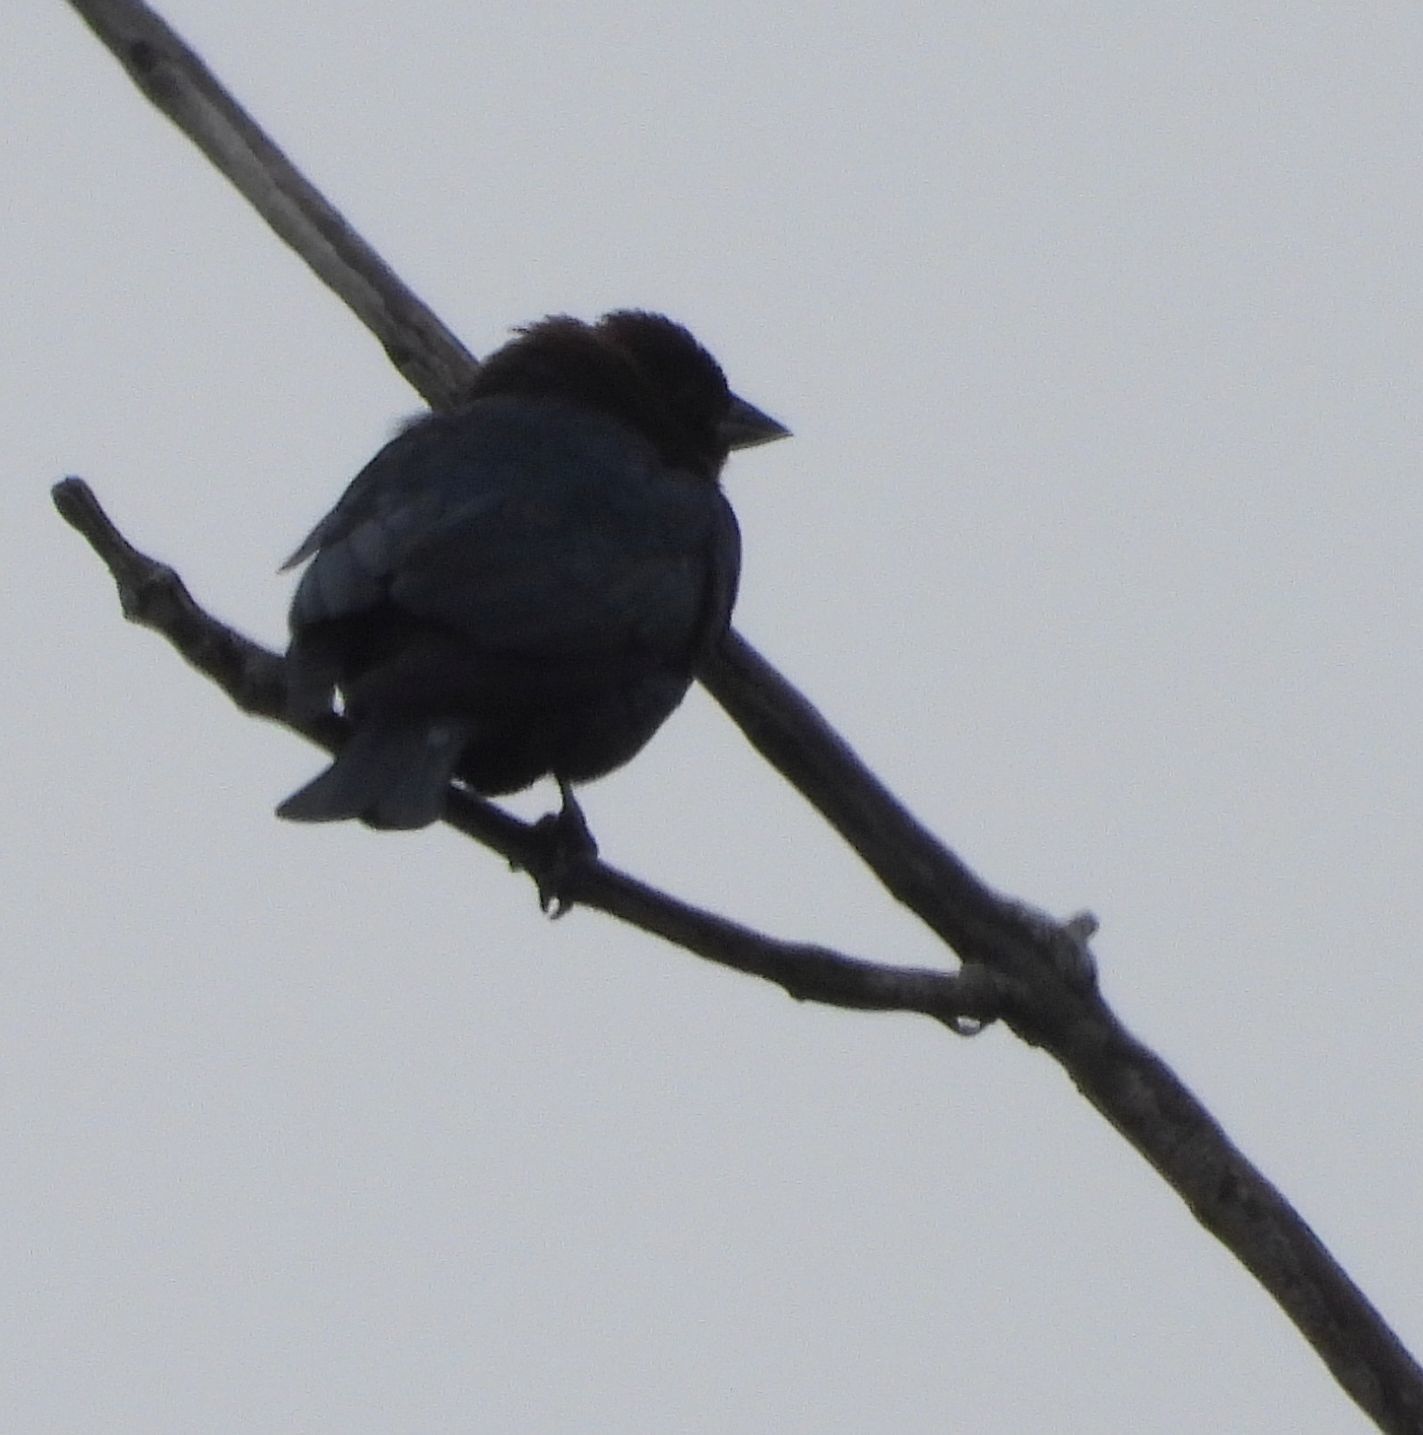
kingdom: Animalia
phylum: Chordata
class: Aves
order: Passeriformes
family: Icteridae
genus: Molothrus
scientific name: Molothrus ater
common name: Brown-headed cowbird
